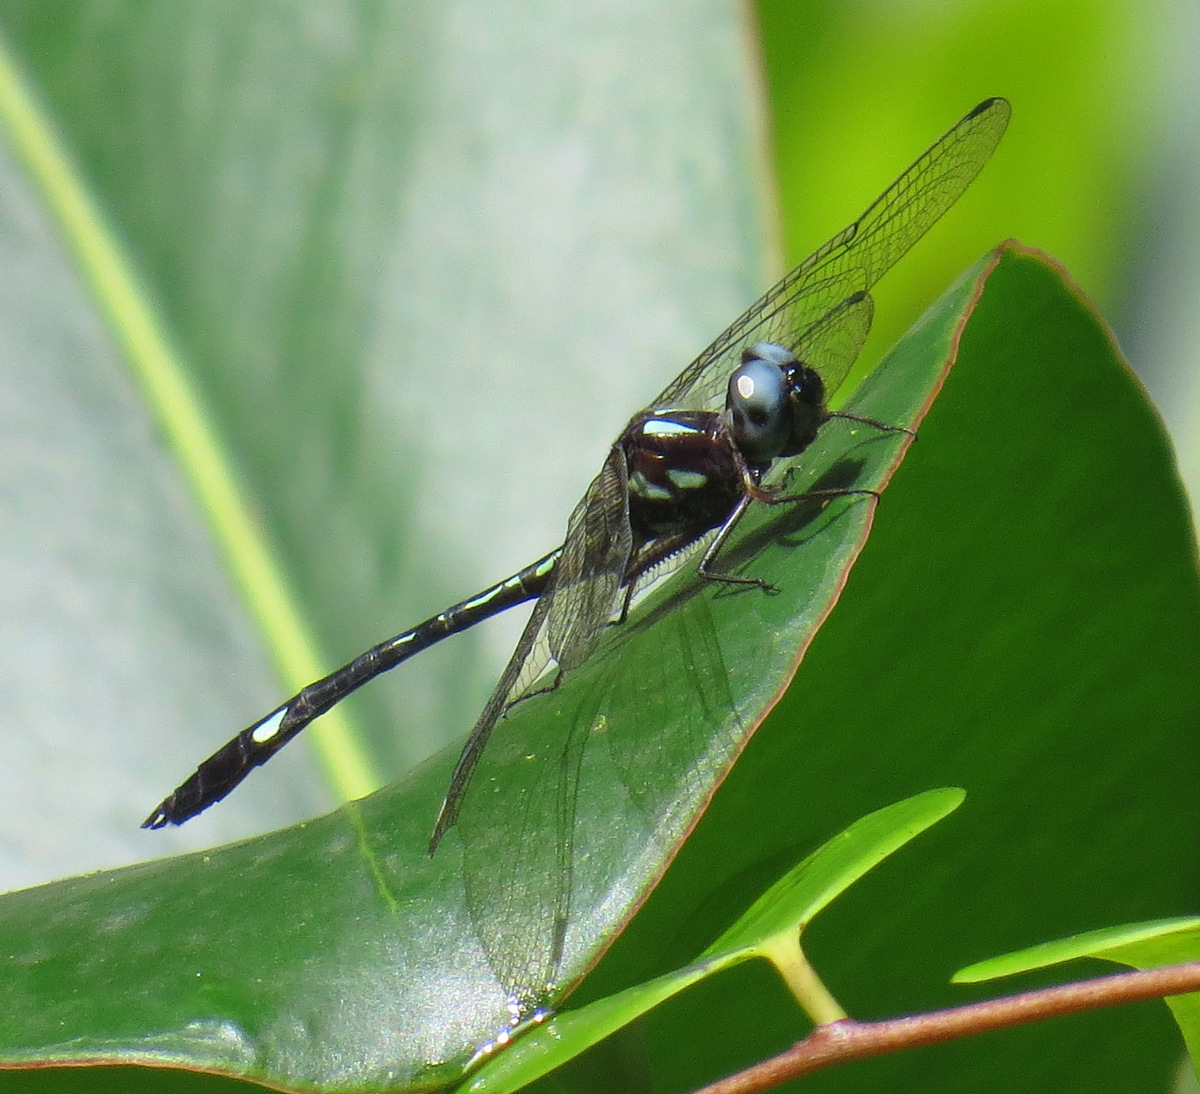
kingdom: Animalia
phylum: Arthropoda
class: Insecta
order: Odonata
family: Libellulidae
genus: Macrothemis
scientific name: Macrothemis pseudimitans
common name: White-tailed sylph
